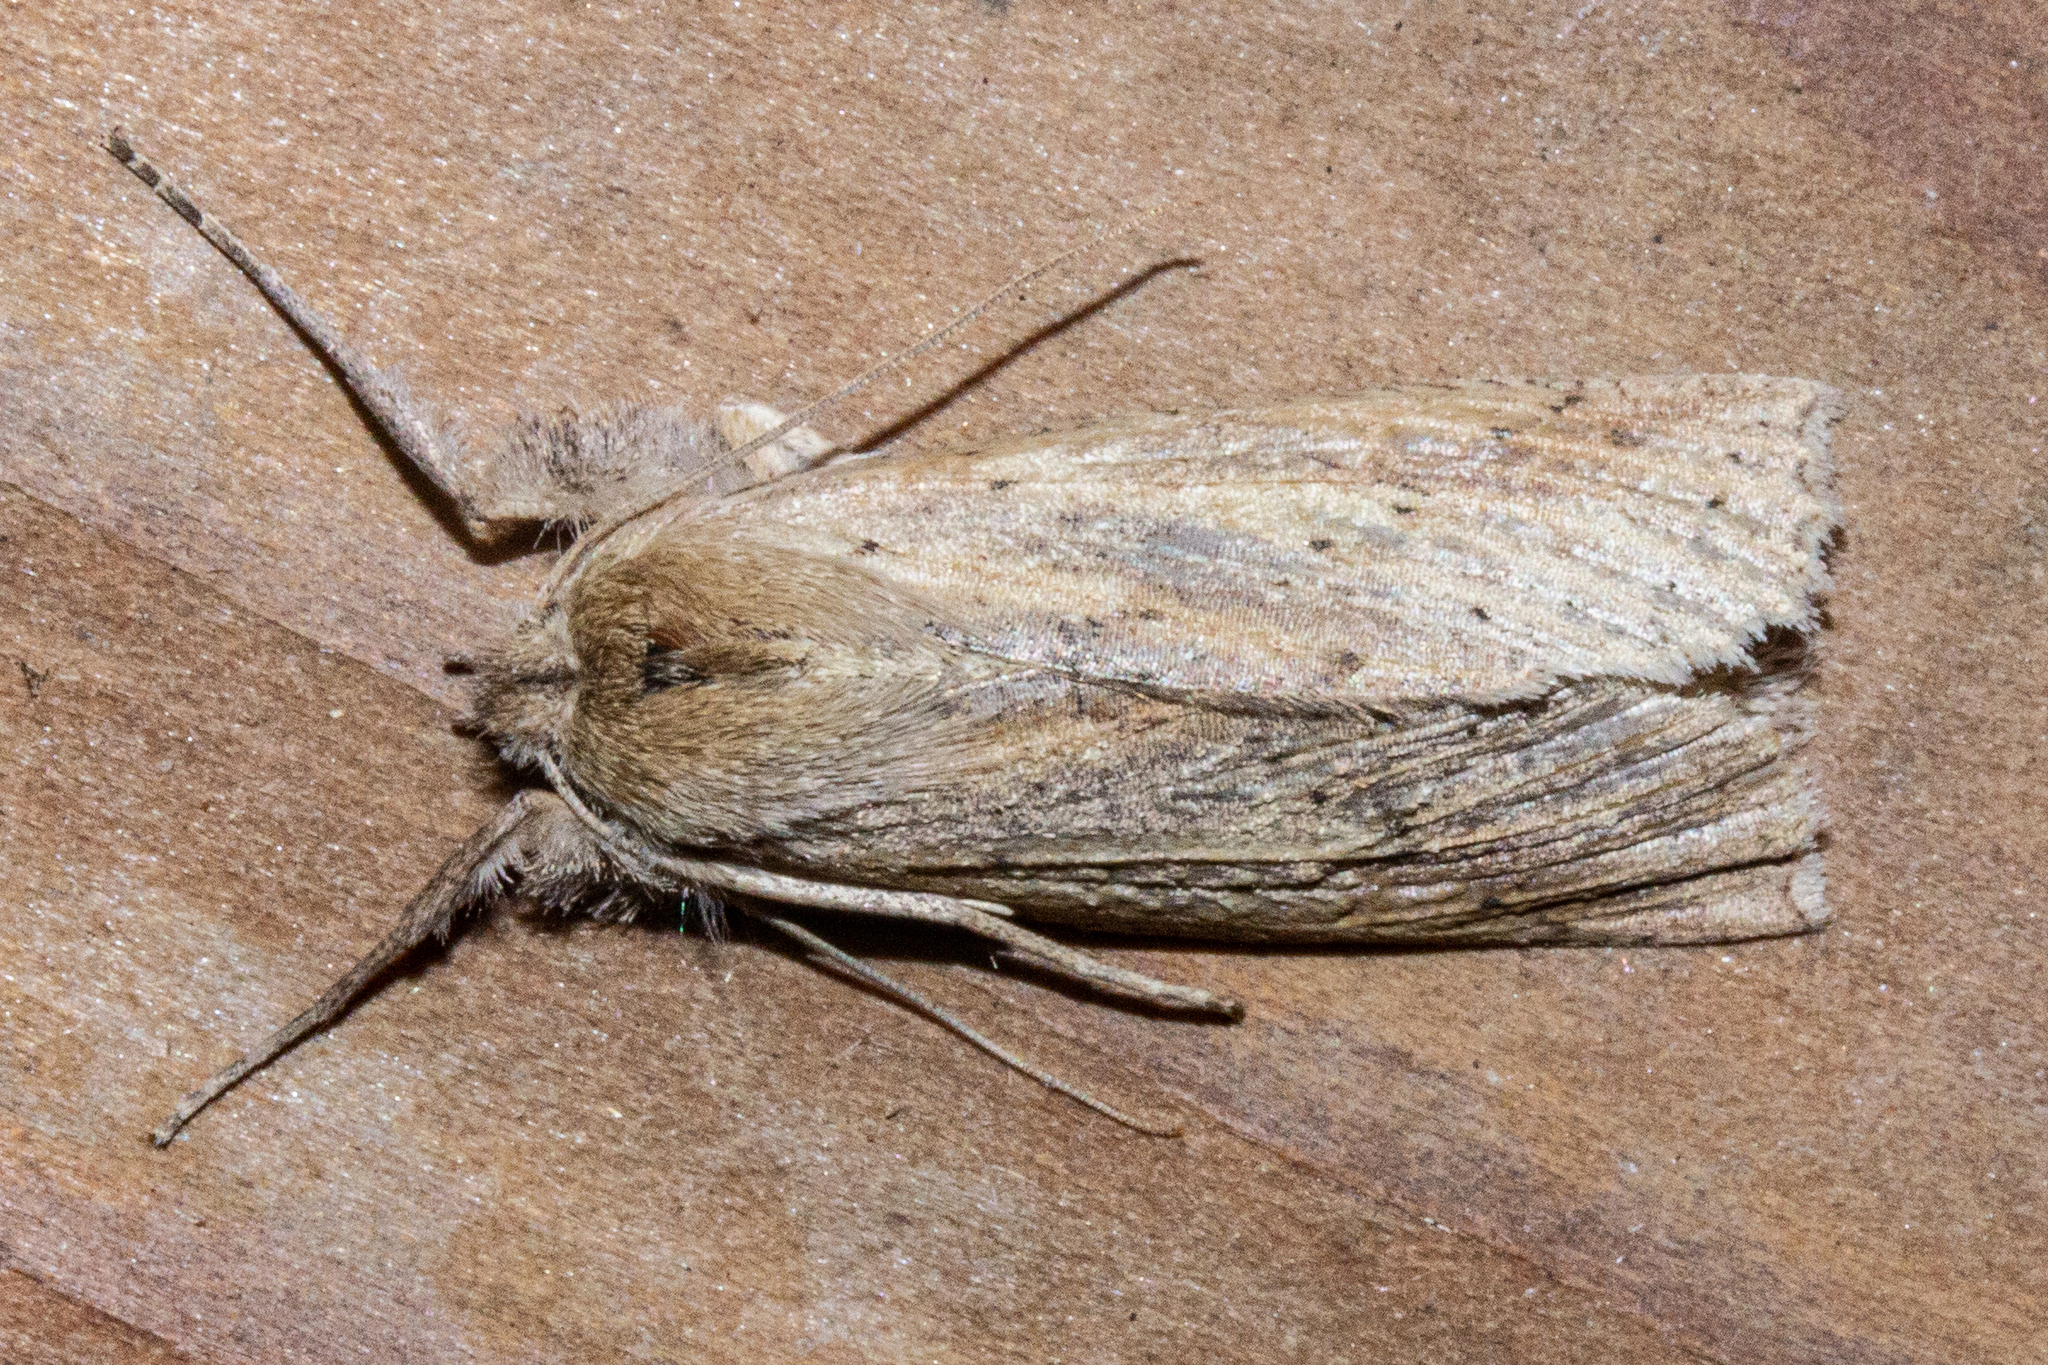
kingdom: Animalia
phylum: Arthropoda
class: Insecta
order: Lepidoptera
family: Geometridae
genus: Declana
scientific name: Declana leptomera
